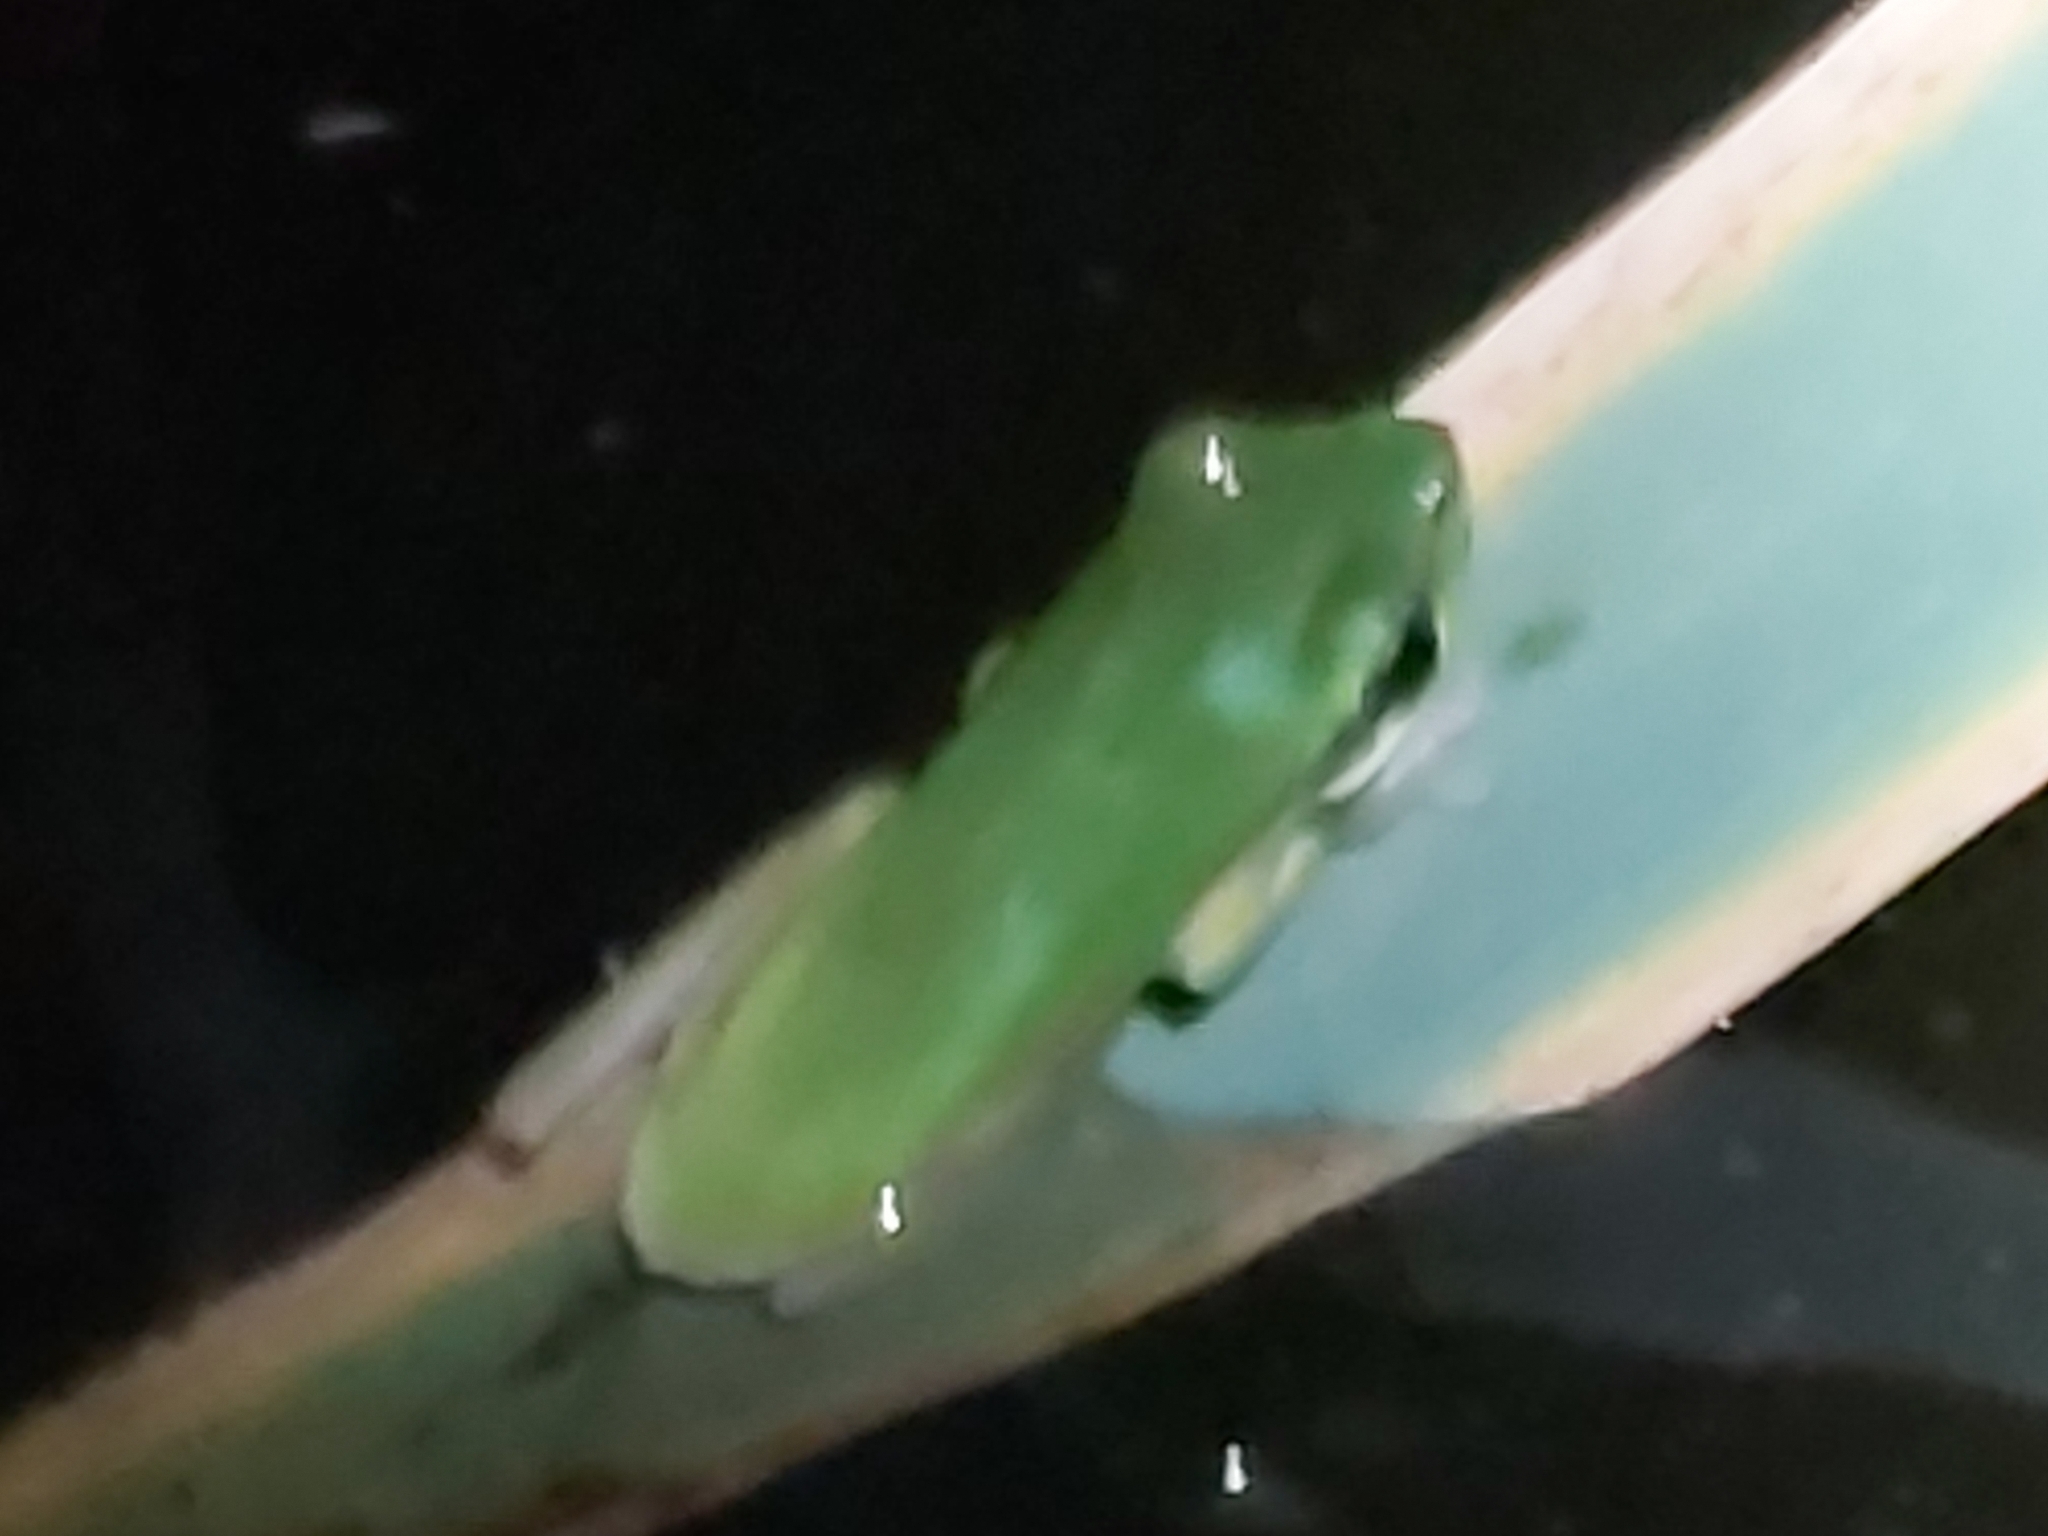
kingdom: Animalia
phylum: Chordata
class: Amphibia
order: Anura
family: Pelodryadidae
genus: Litoria
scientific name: Litoria fallax
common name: Eastern dwarf treefrog
